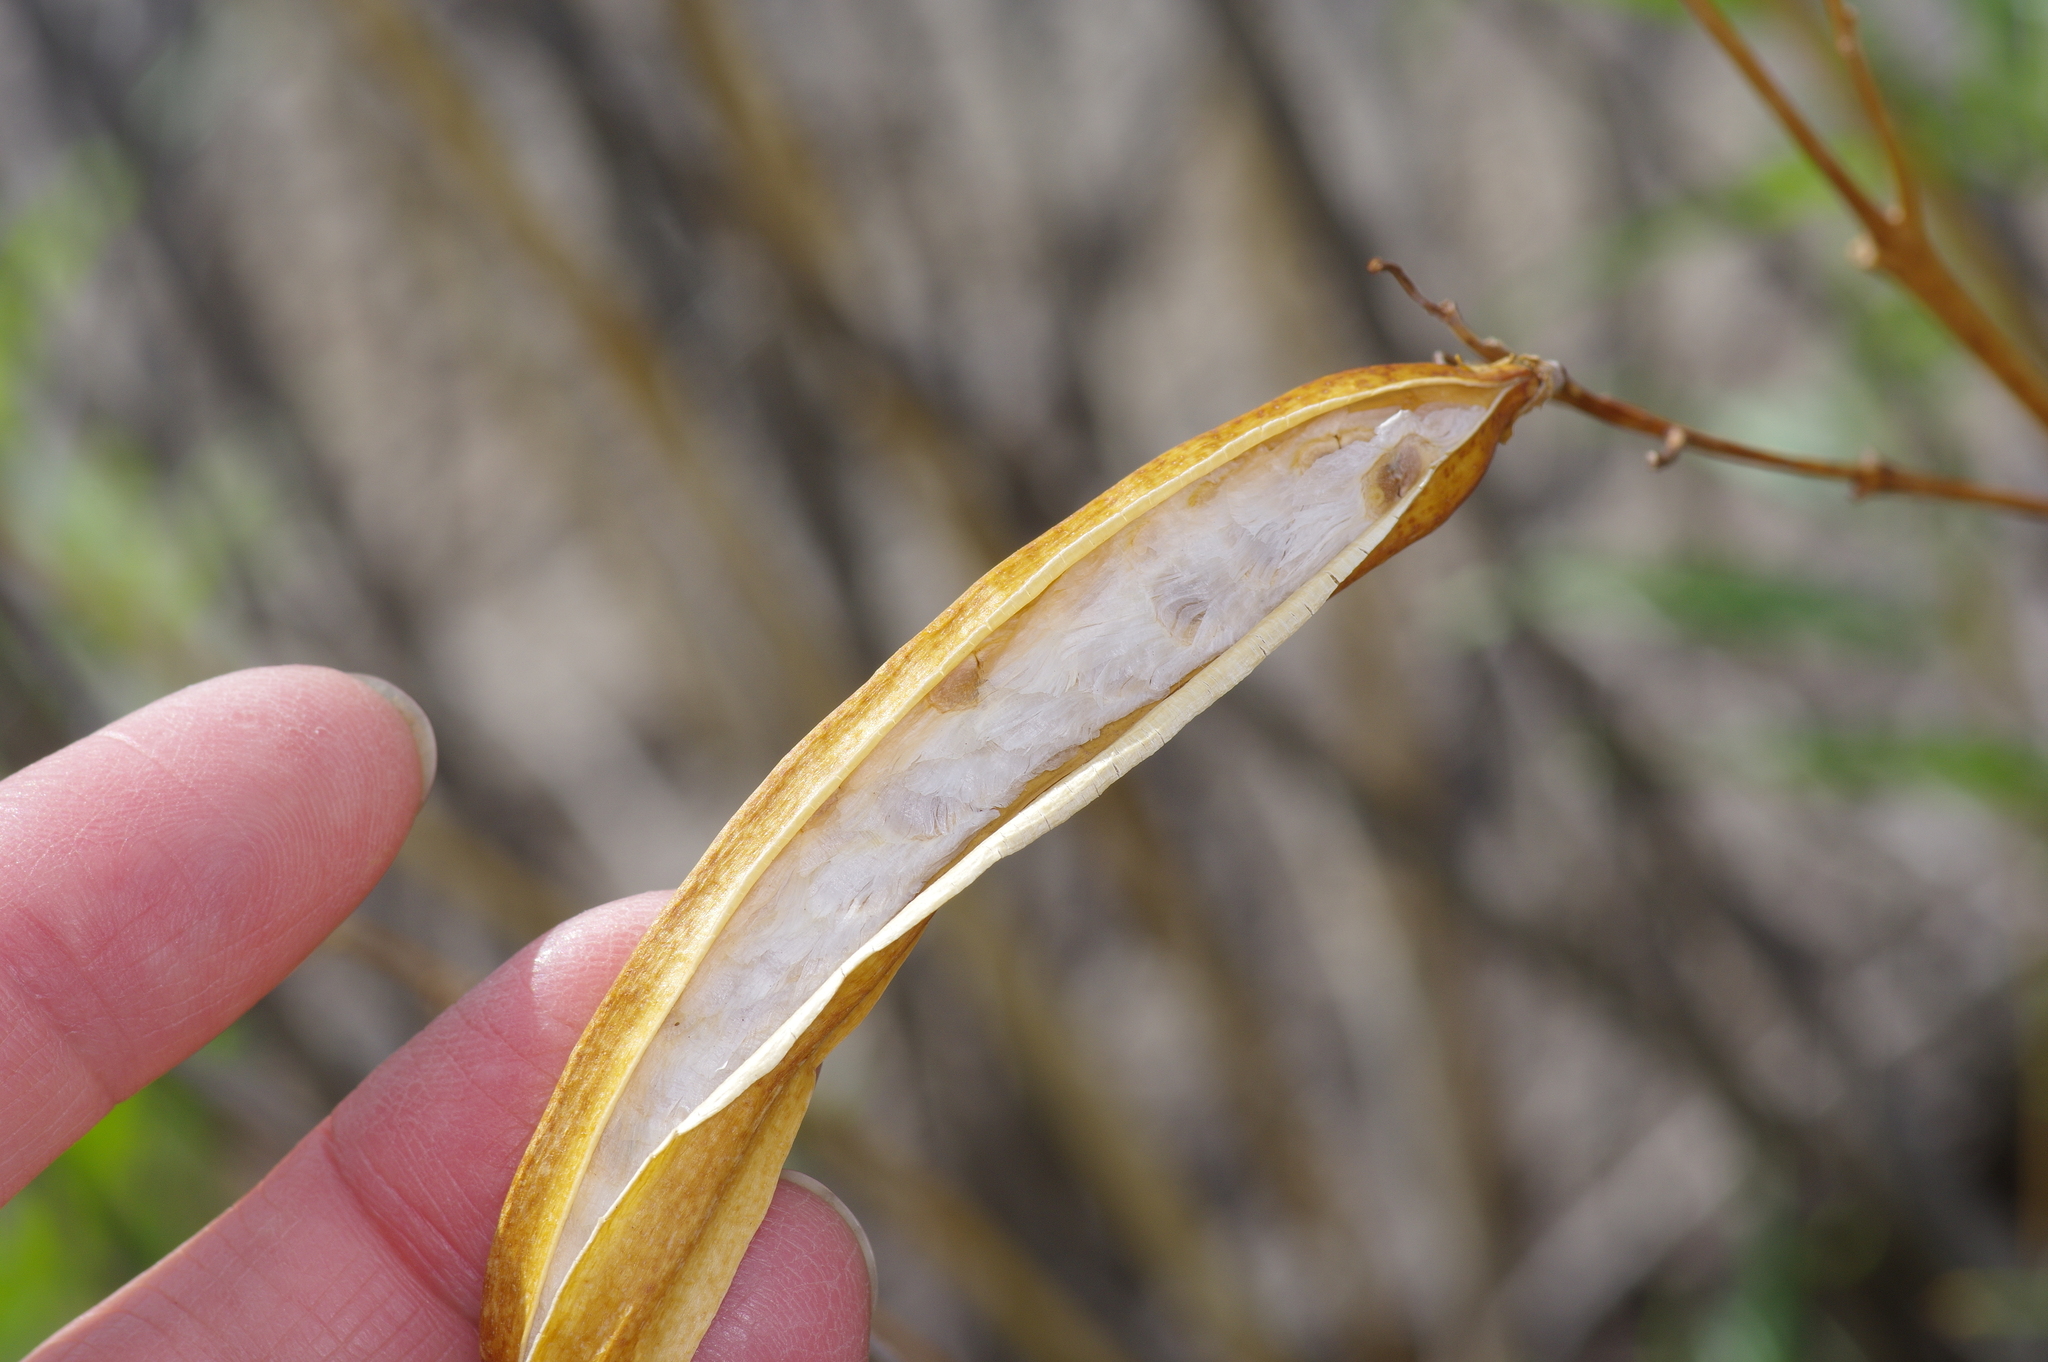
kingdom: Plantae
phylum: Tracheophyta
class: Magnoliopsida
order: Lamiales
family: Bignoniaceae
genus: Tecoma
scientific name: Tecoma stans
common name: Yellow trumpetbush
